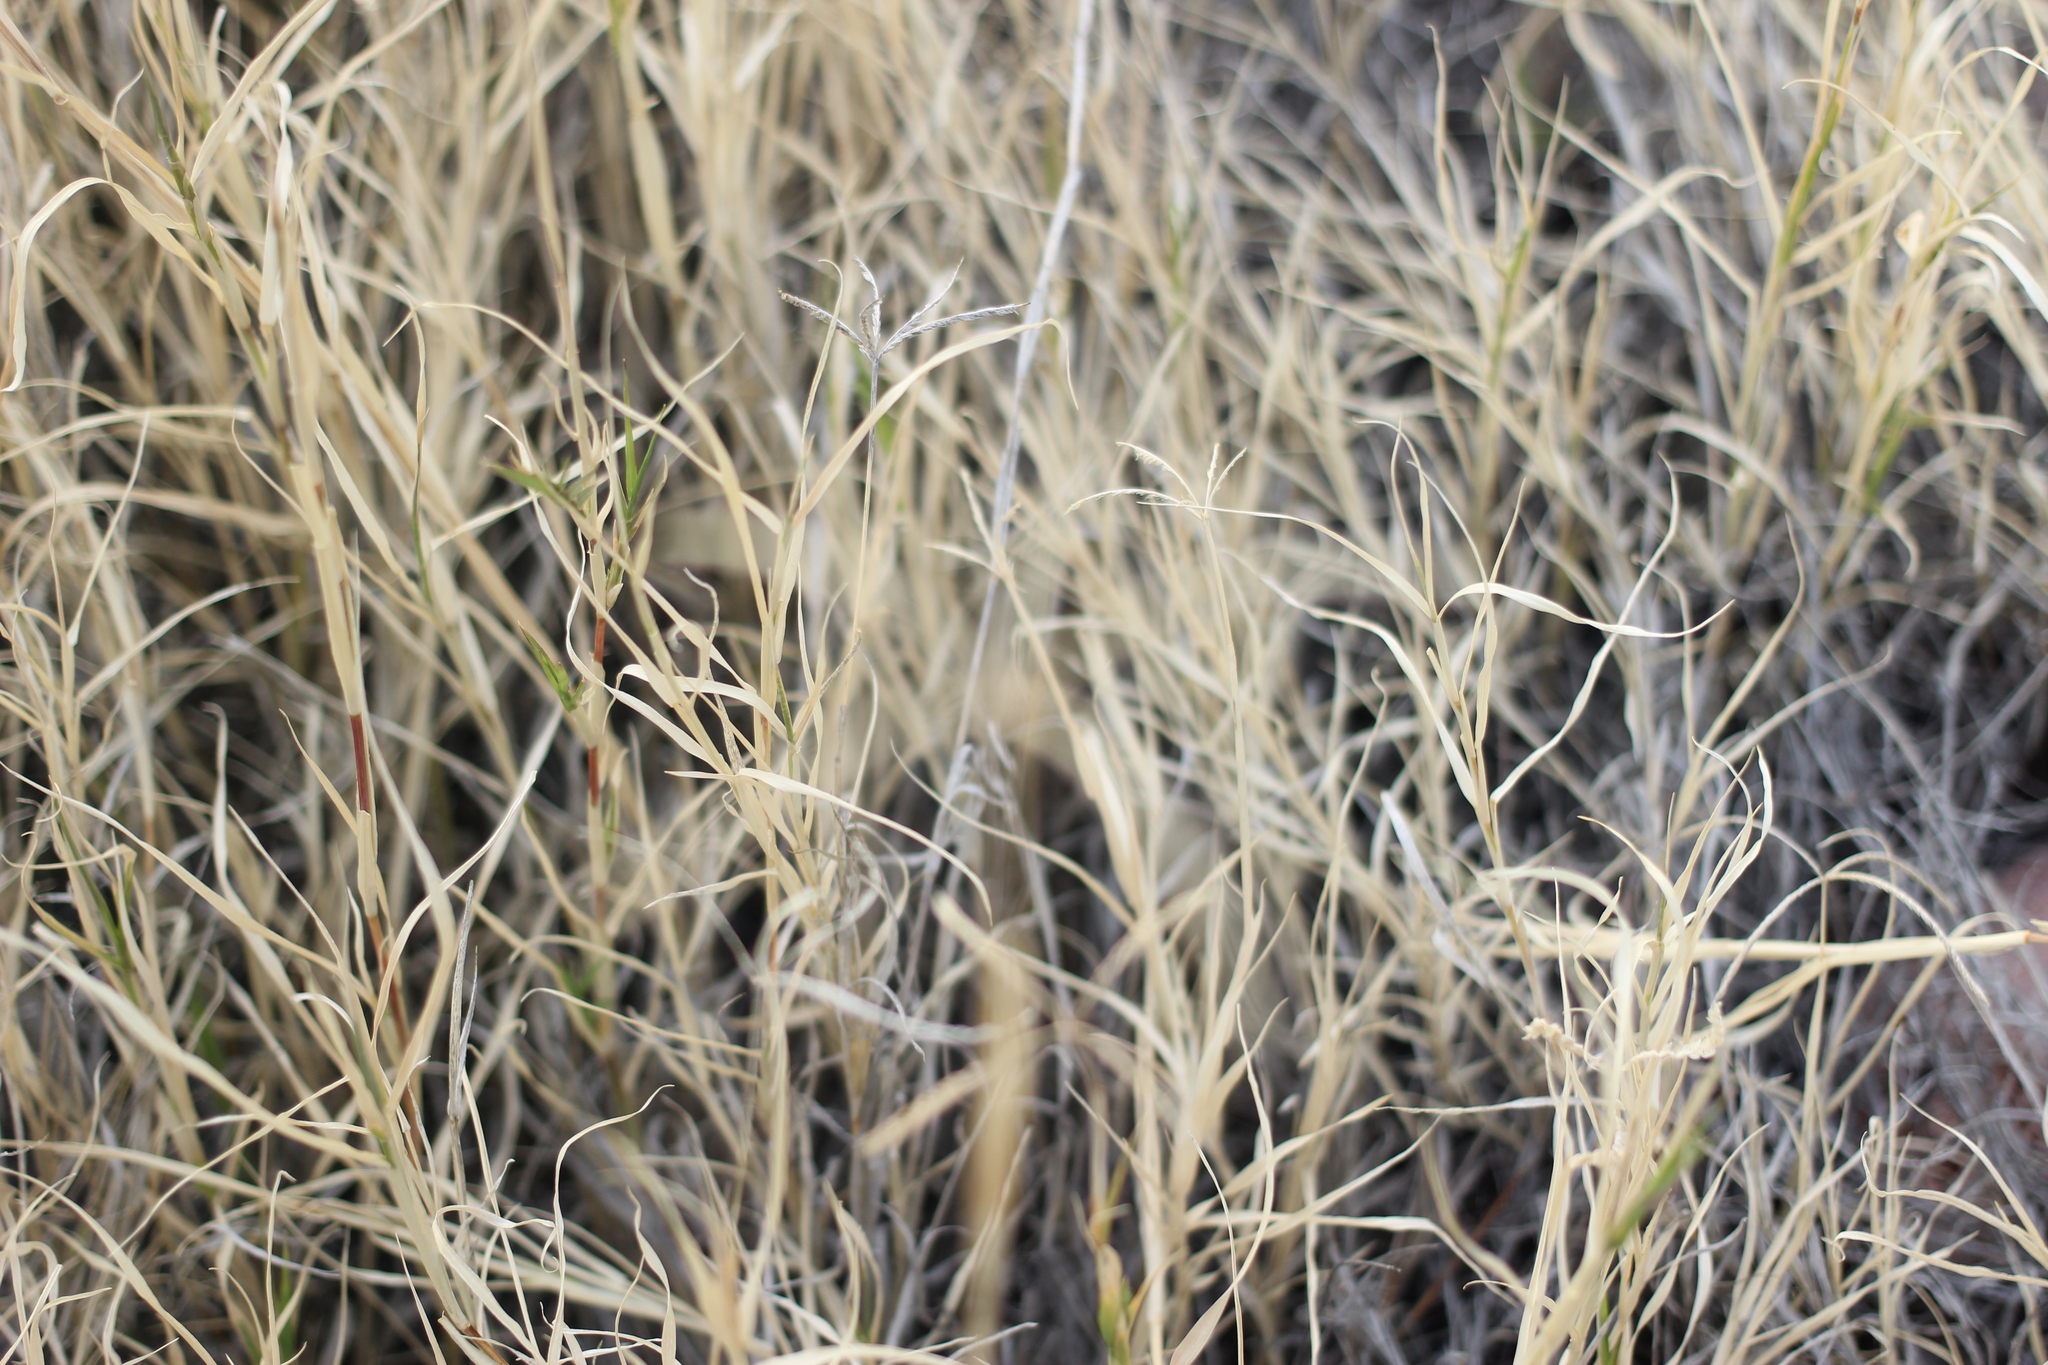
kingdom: Plantae
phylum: Tracheophyta
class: Liliopsida
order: Poales
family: Poaceae
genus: Cynodon
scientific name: Cynodon dactylon
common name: Bermuda grass
